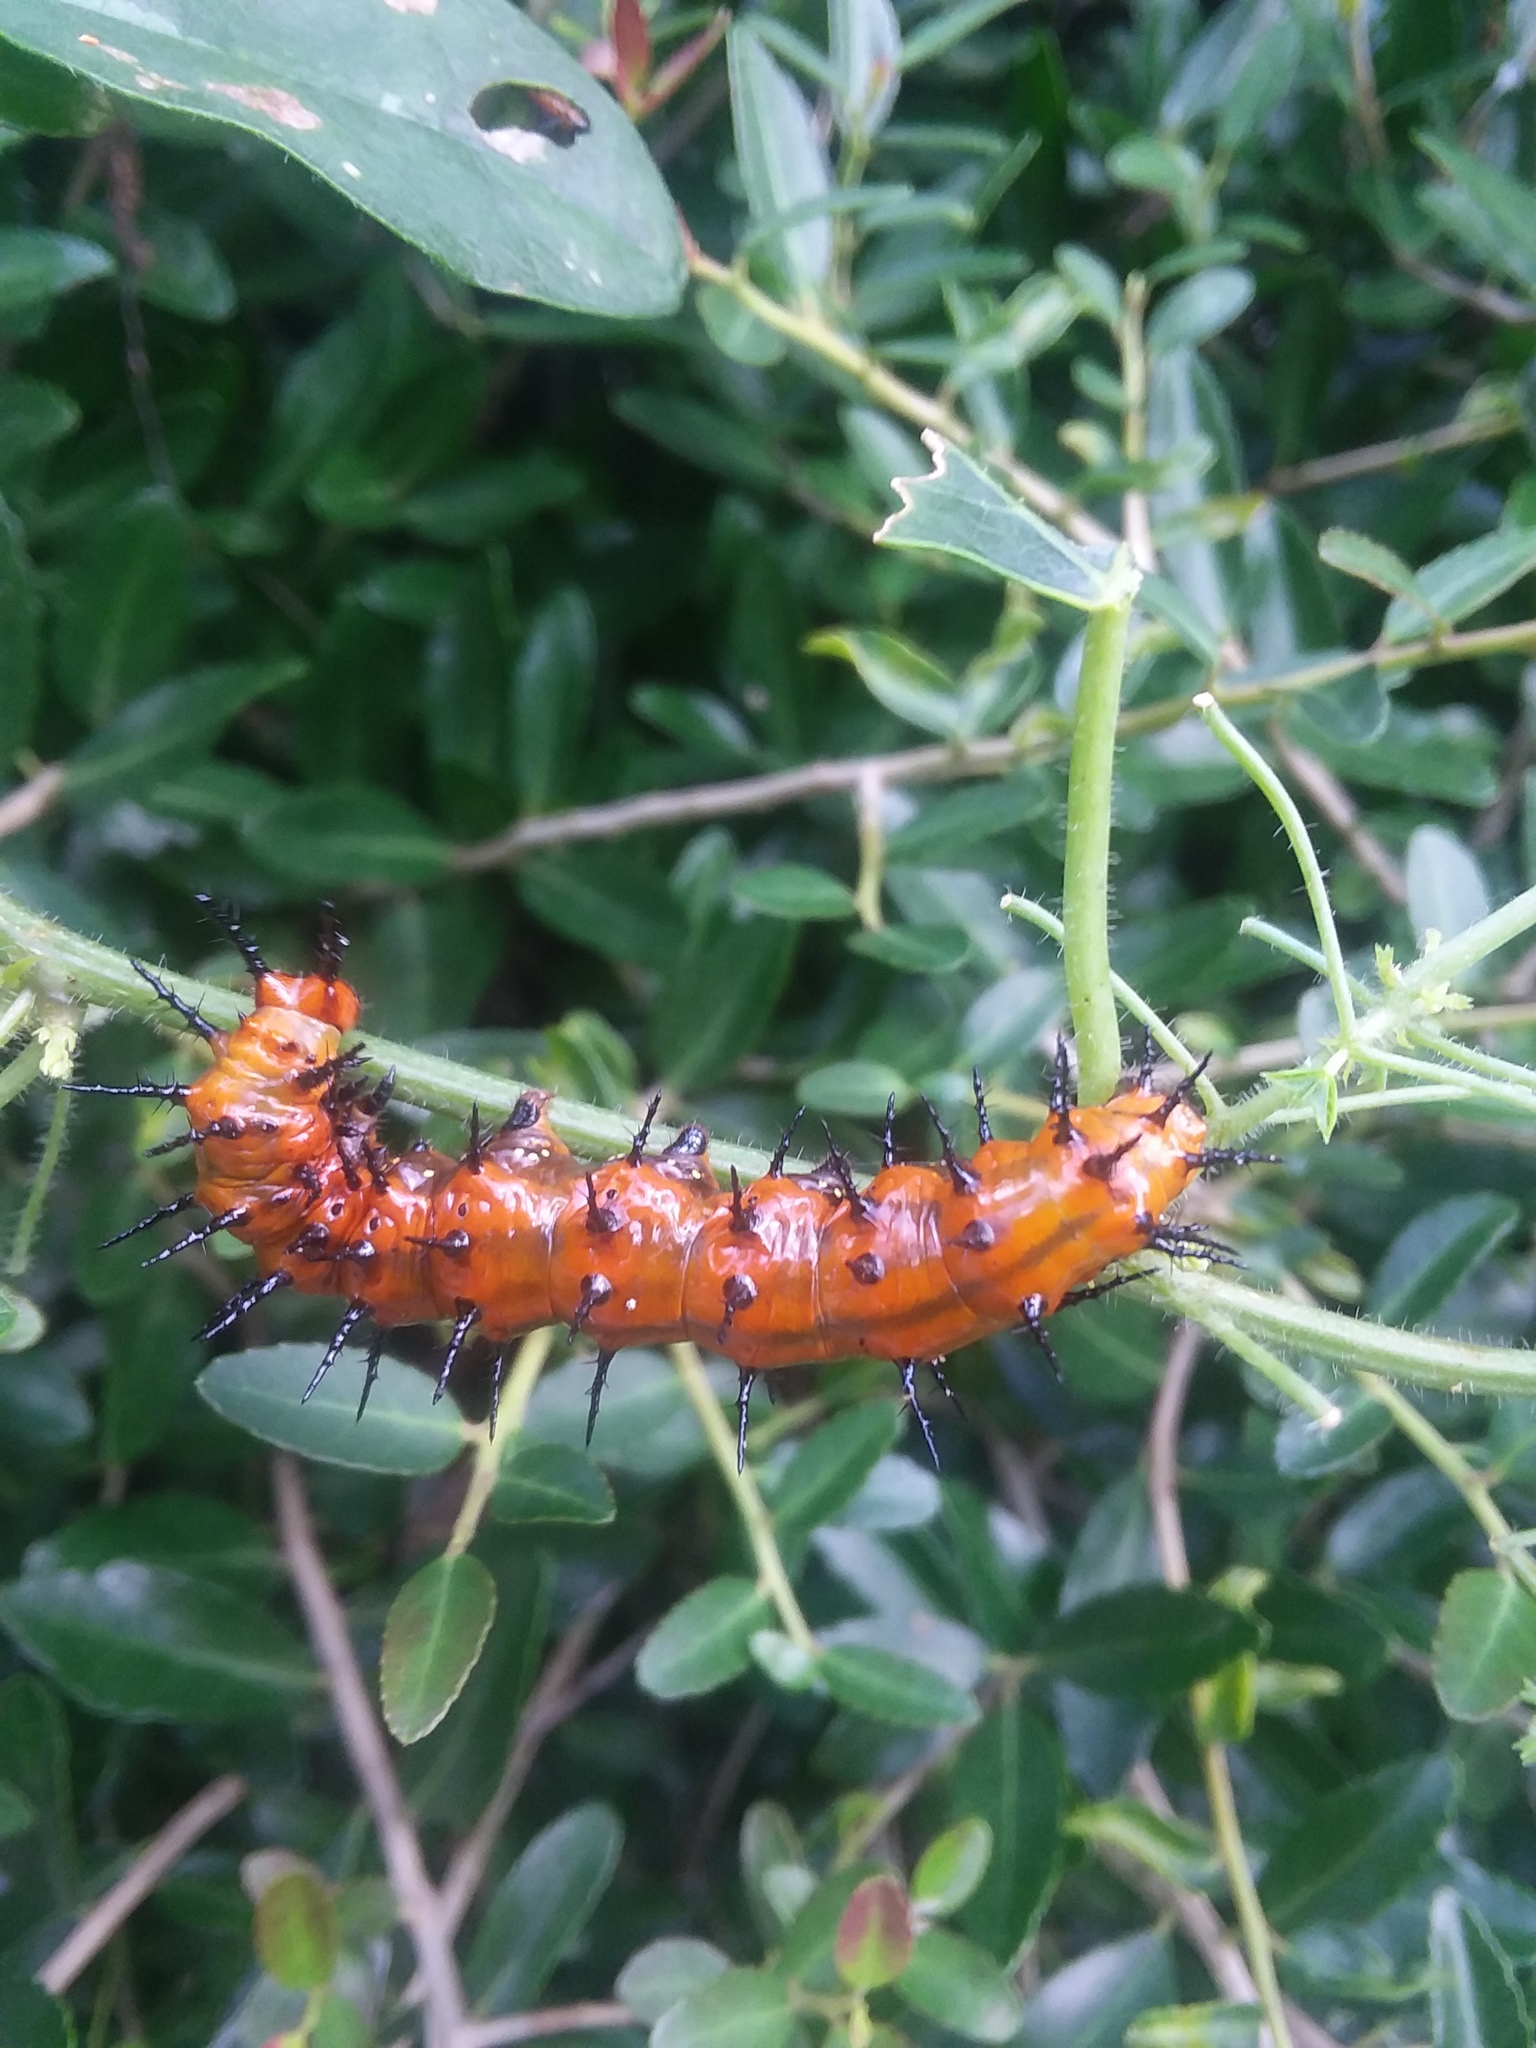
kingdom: Animalia
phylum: Arthropoda
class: Insecta
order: Lepidoptera
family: Nymphalidae
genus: Dione
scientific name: Dione vanillae
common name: Gulf fritillary
